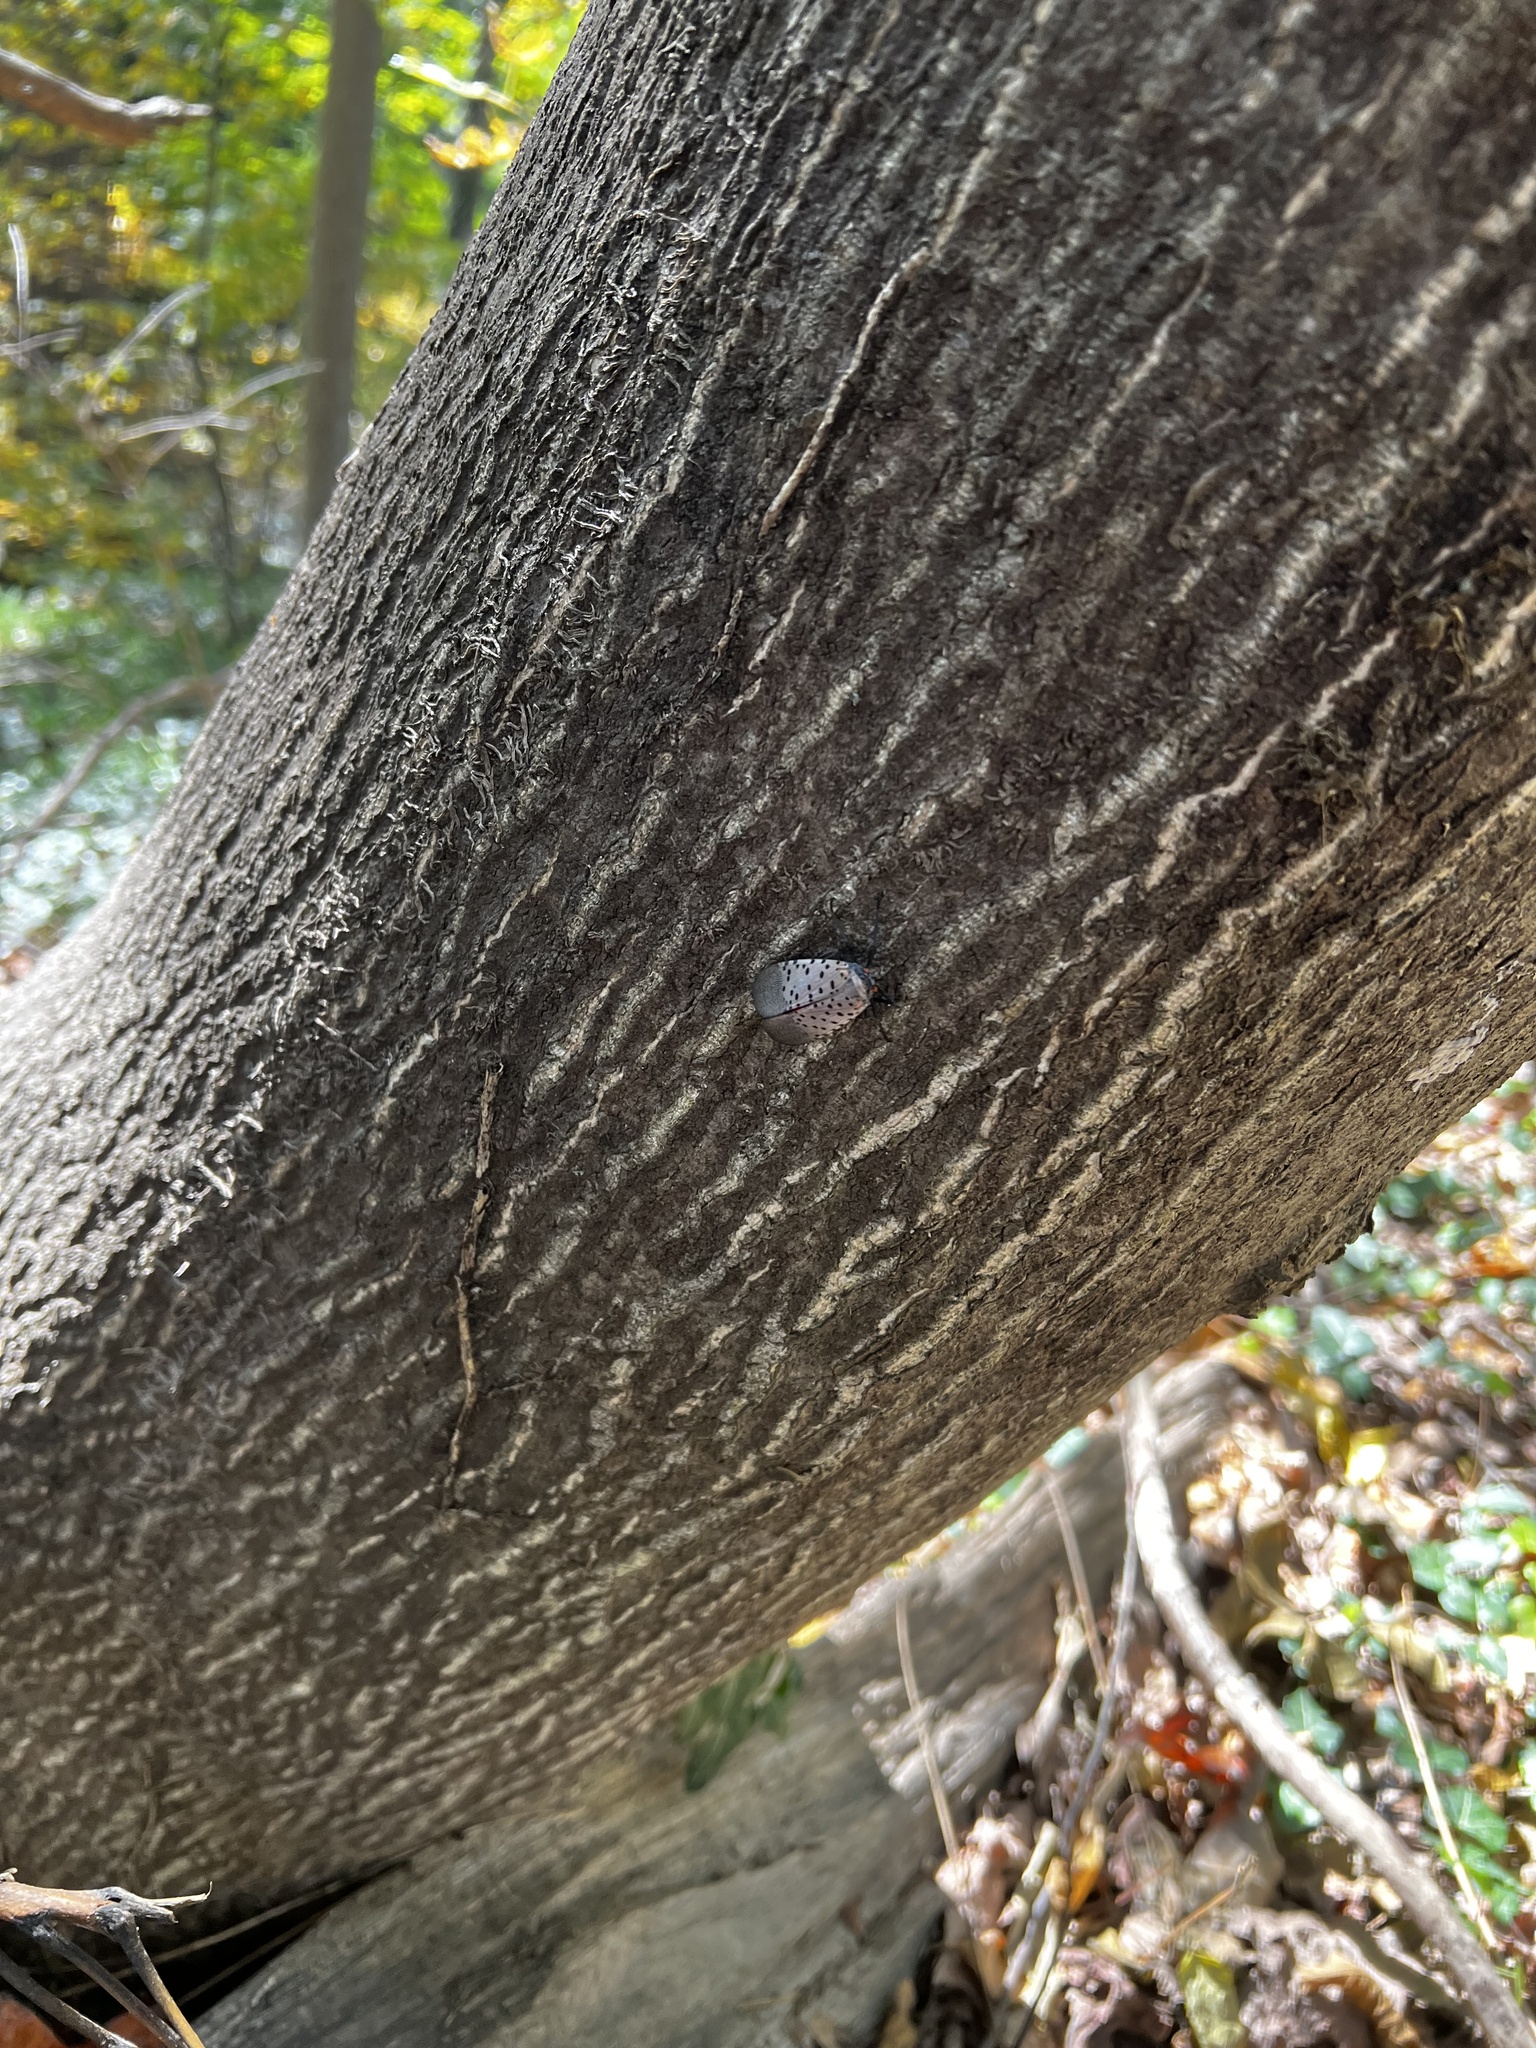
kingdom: Animalia
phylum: Arthropoda
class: Insecta
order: Hemiptera
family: Fulgoridae
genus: Lycorma
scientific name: Lycorma delicatula
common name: Spotted lanternfly
